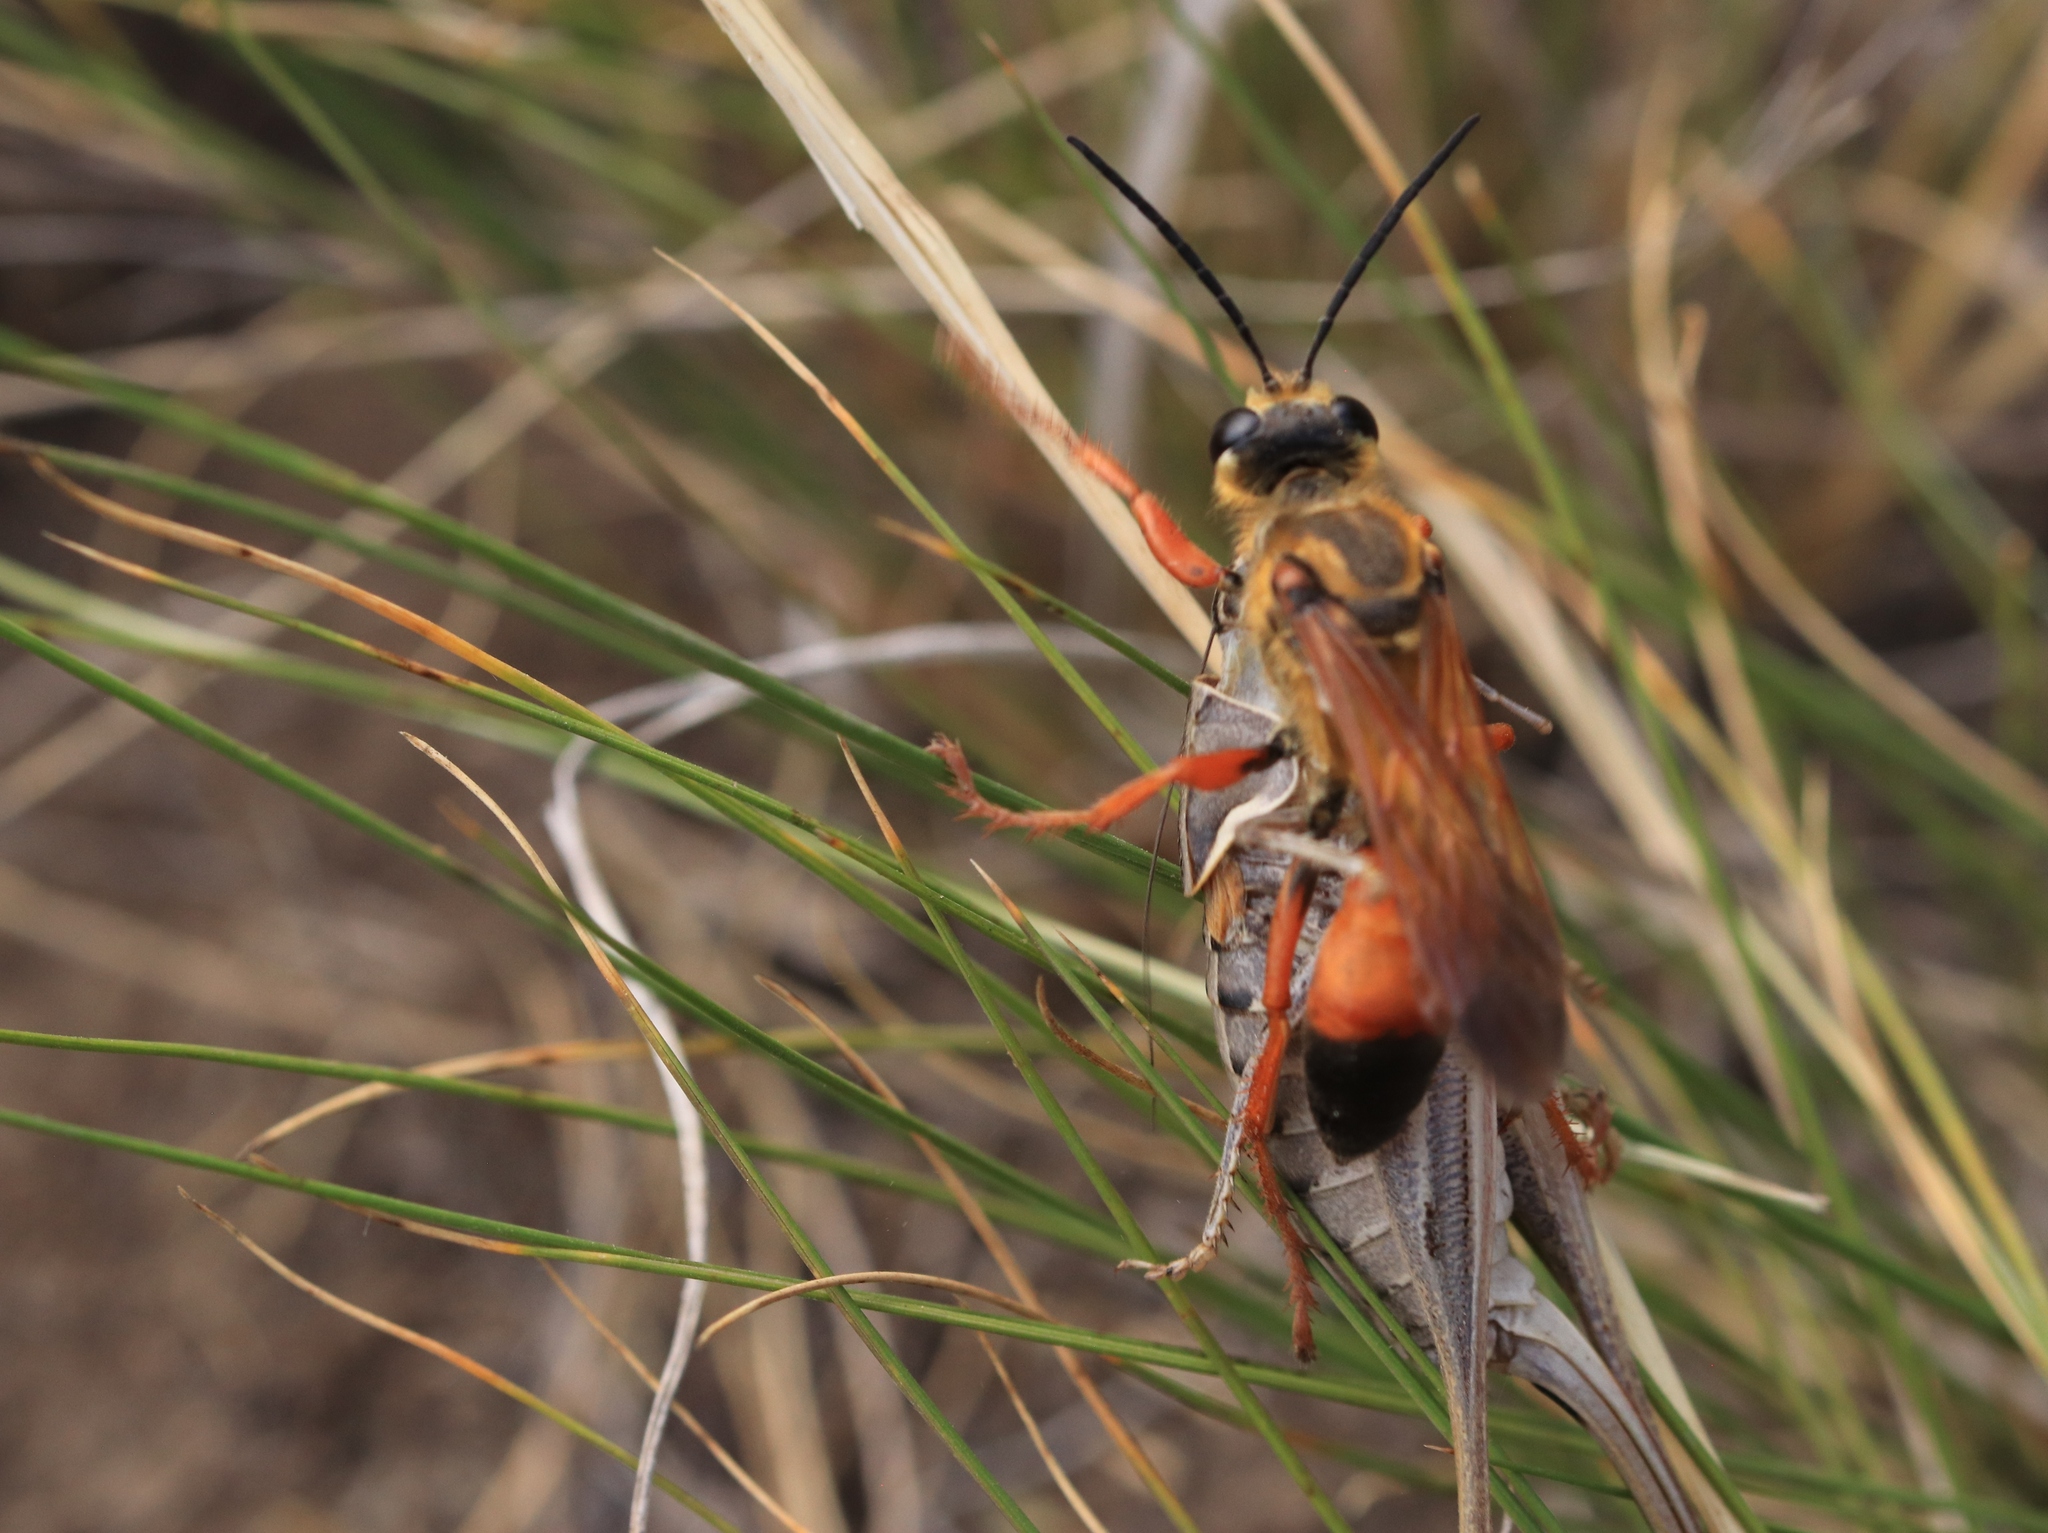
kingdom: Animalia
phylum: Arthropoda
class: Insecta
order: Hymenoptera
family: Sphecidae
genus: Sphex
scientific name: Sphex ichneumoneus
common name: Great golden digger wasp
